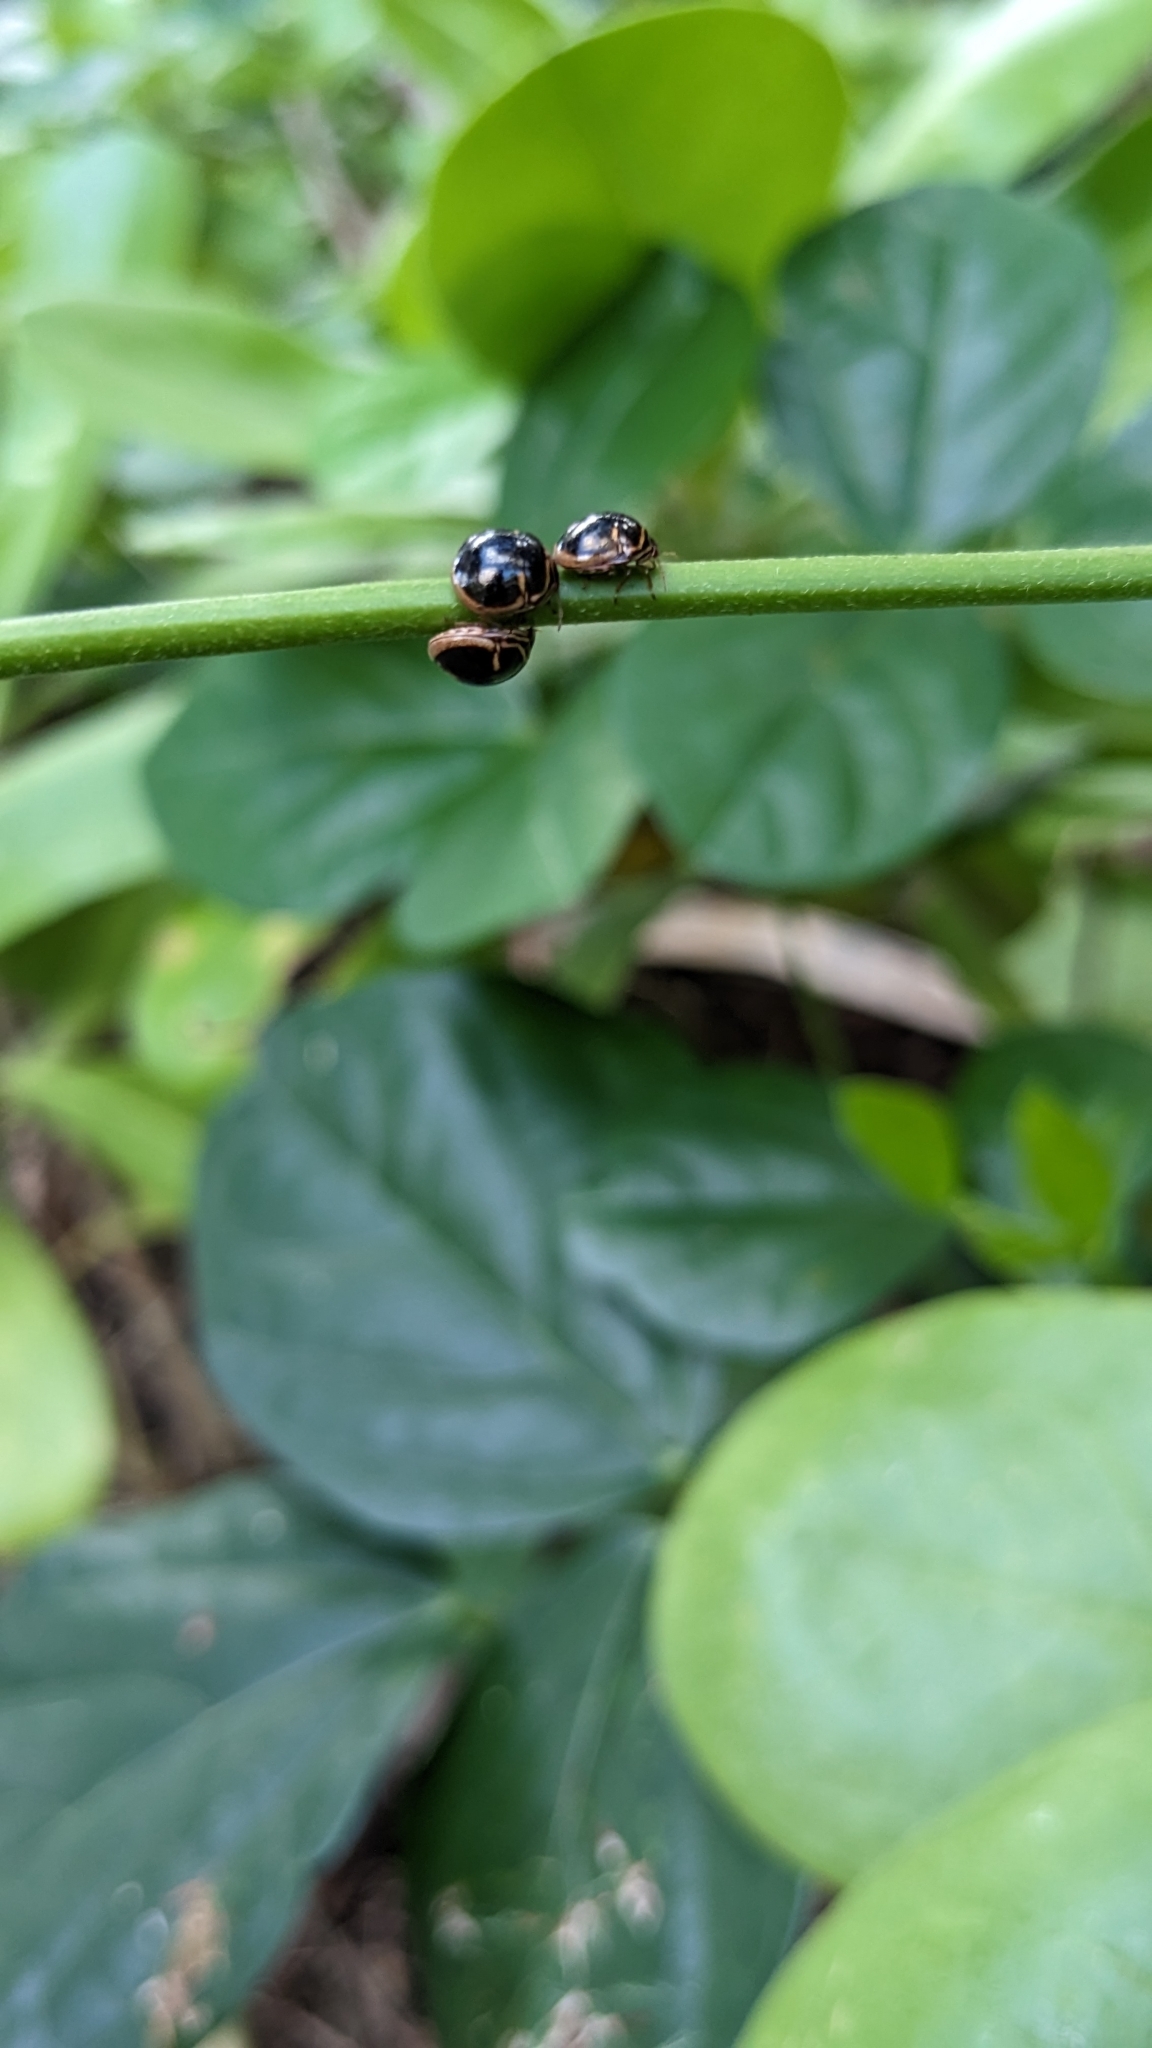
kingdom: Animalia
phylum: Arthropoda
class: Insecta
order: Hemiptera
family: Plataspidae
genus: Coptosoma
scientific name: Coptosoma
